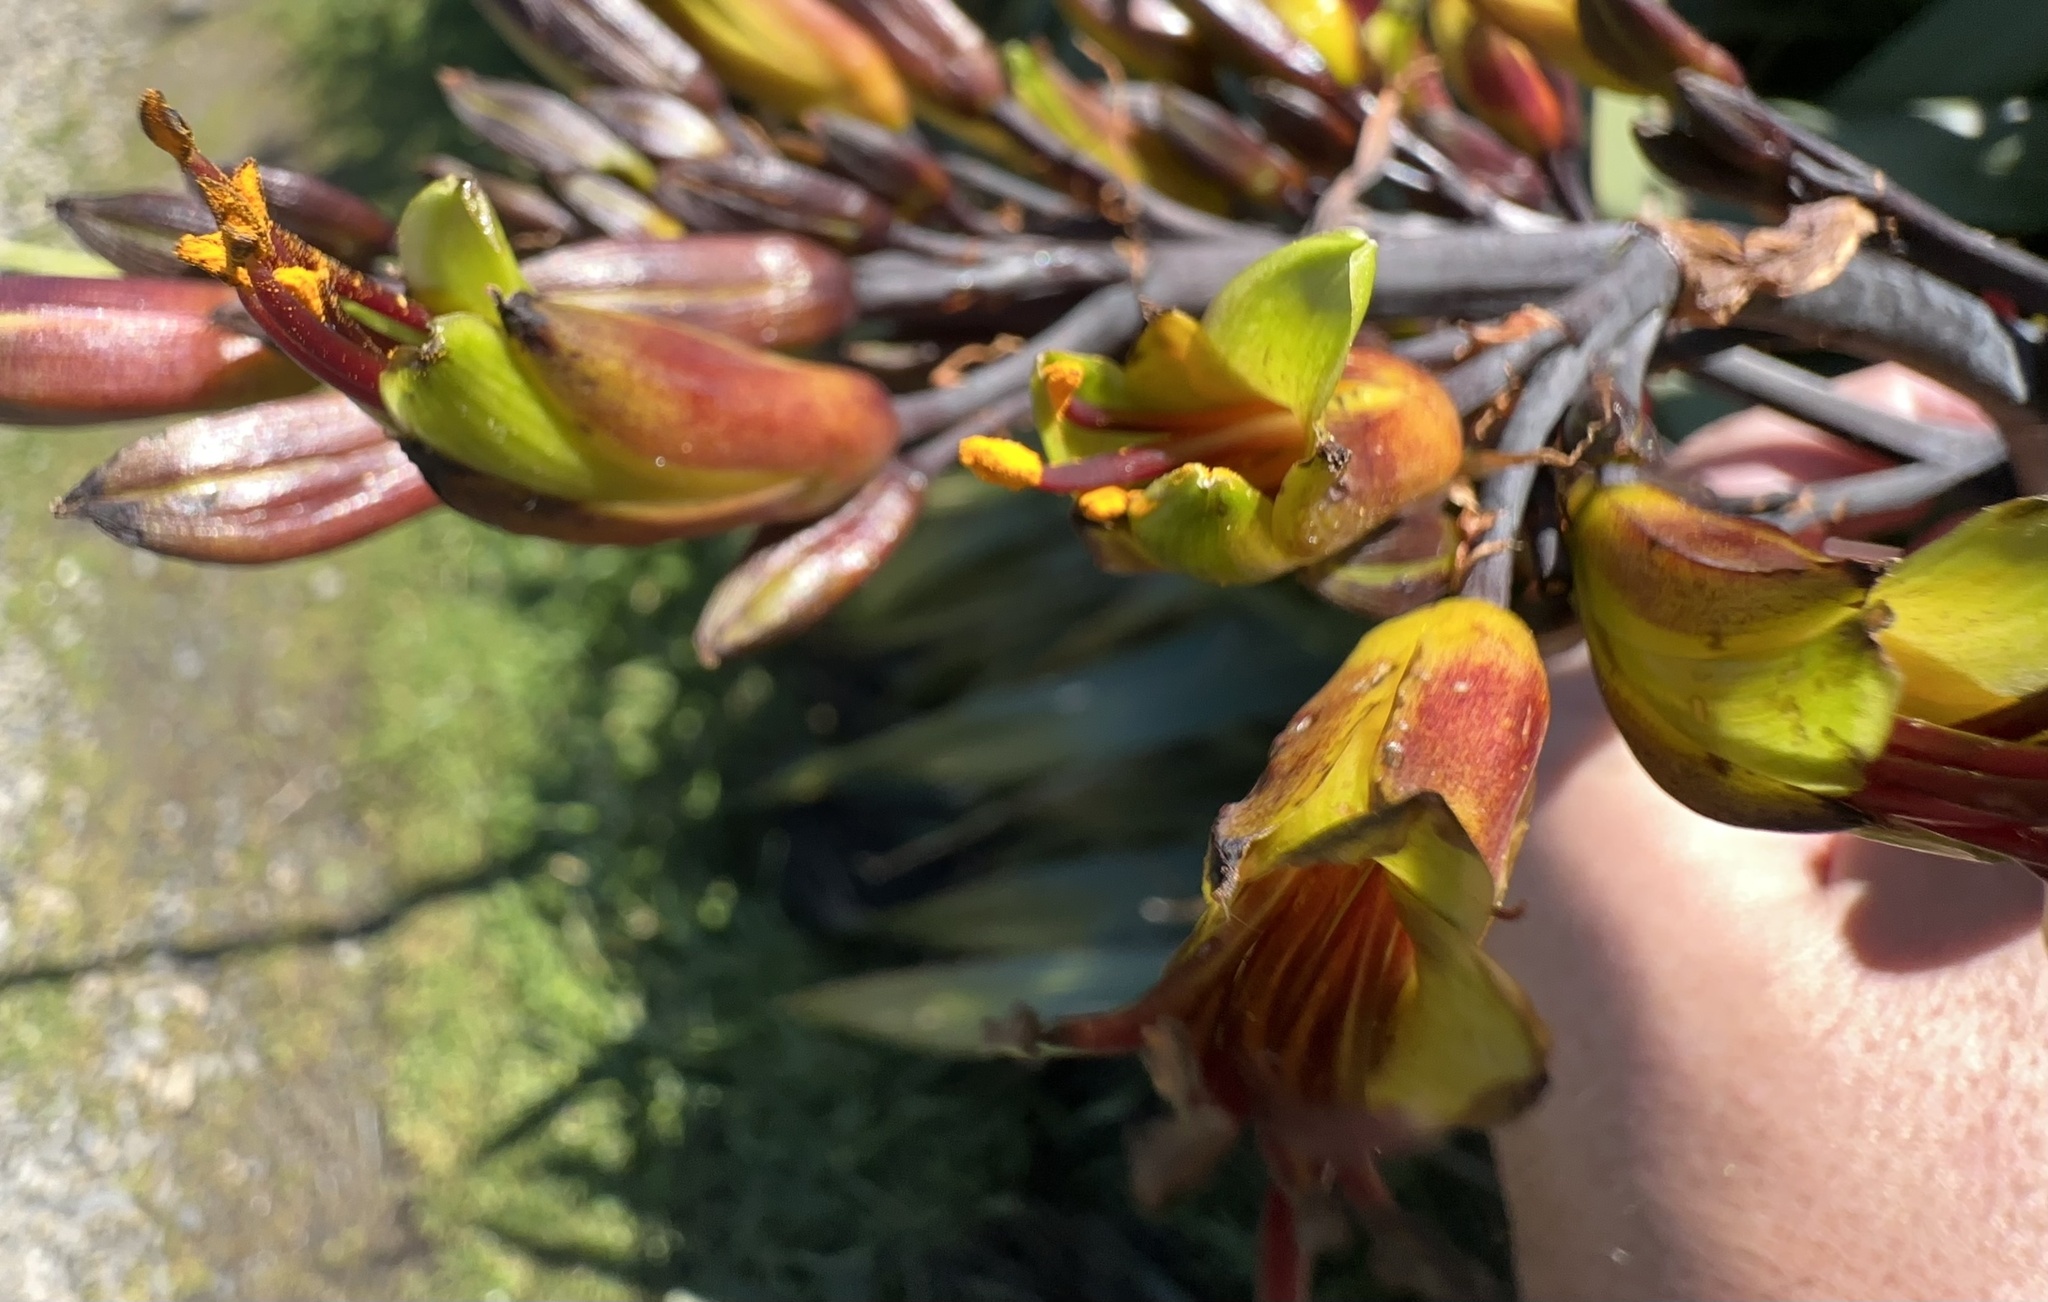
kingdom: Plantae
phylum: Tracheophyta
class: Liliopsida
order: Asparagales
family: Asphodelaceae
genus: Phormium
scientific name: Phormium colensoi
